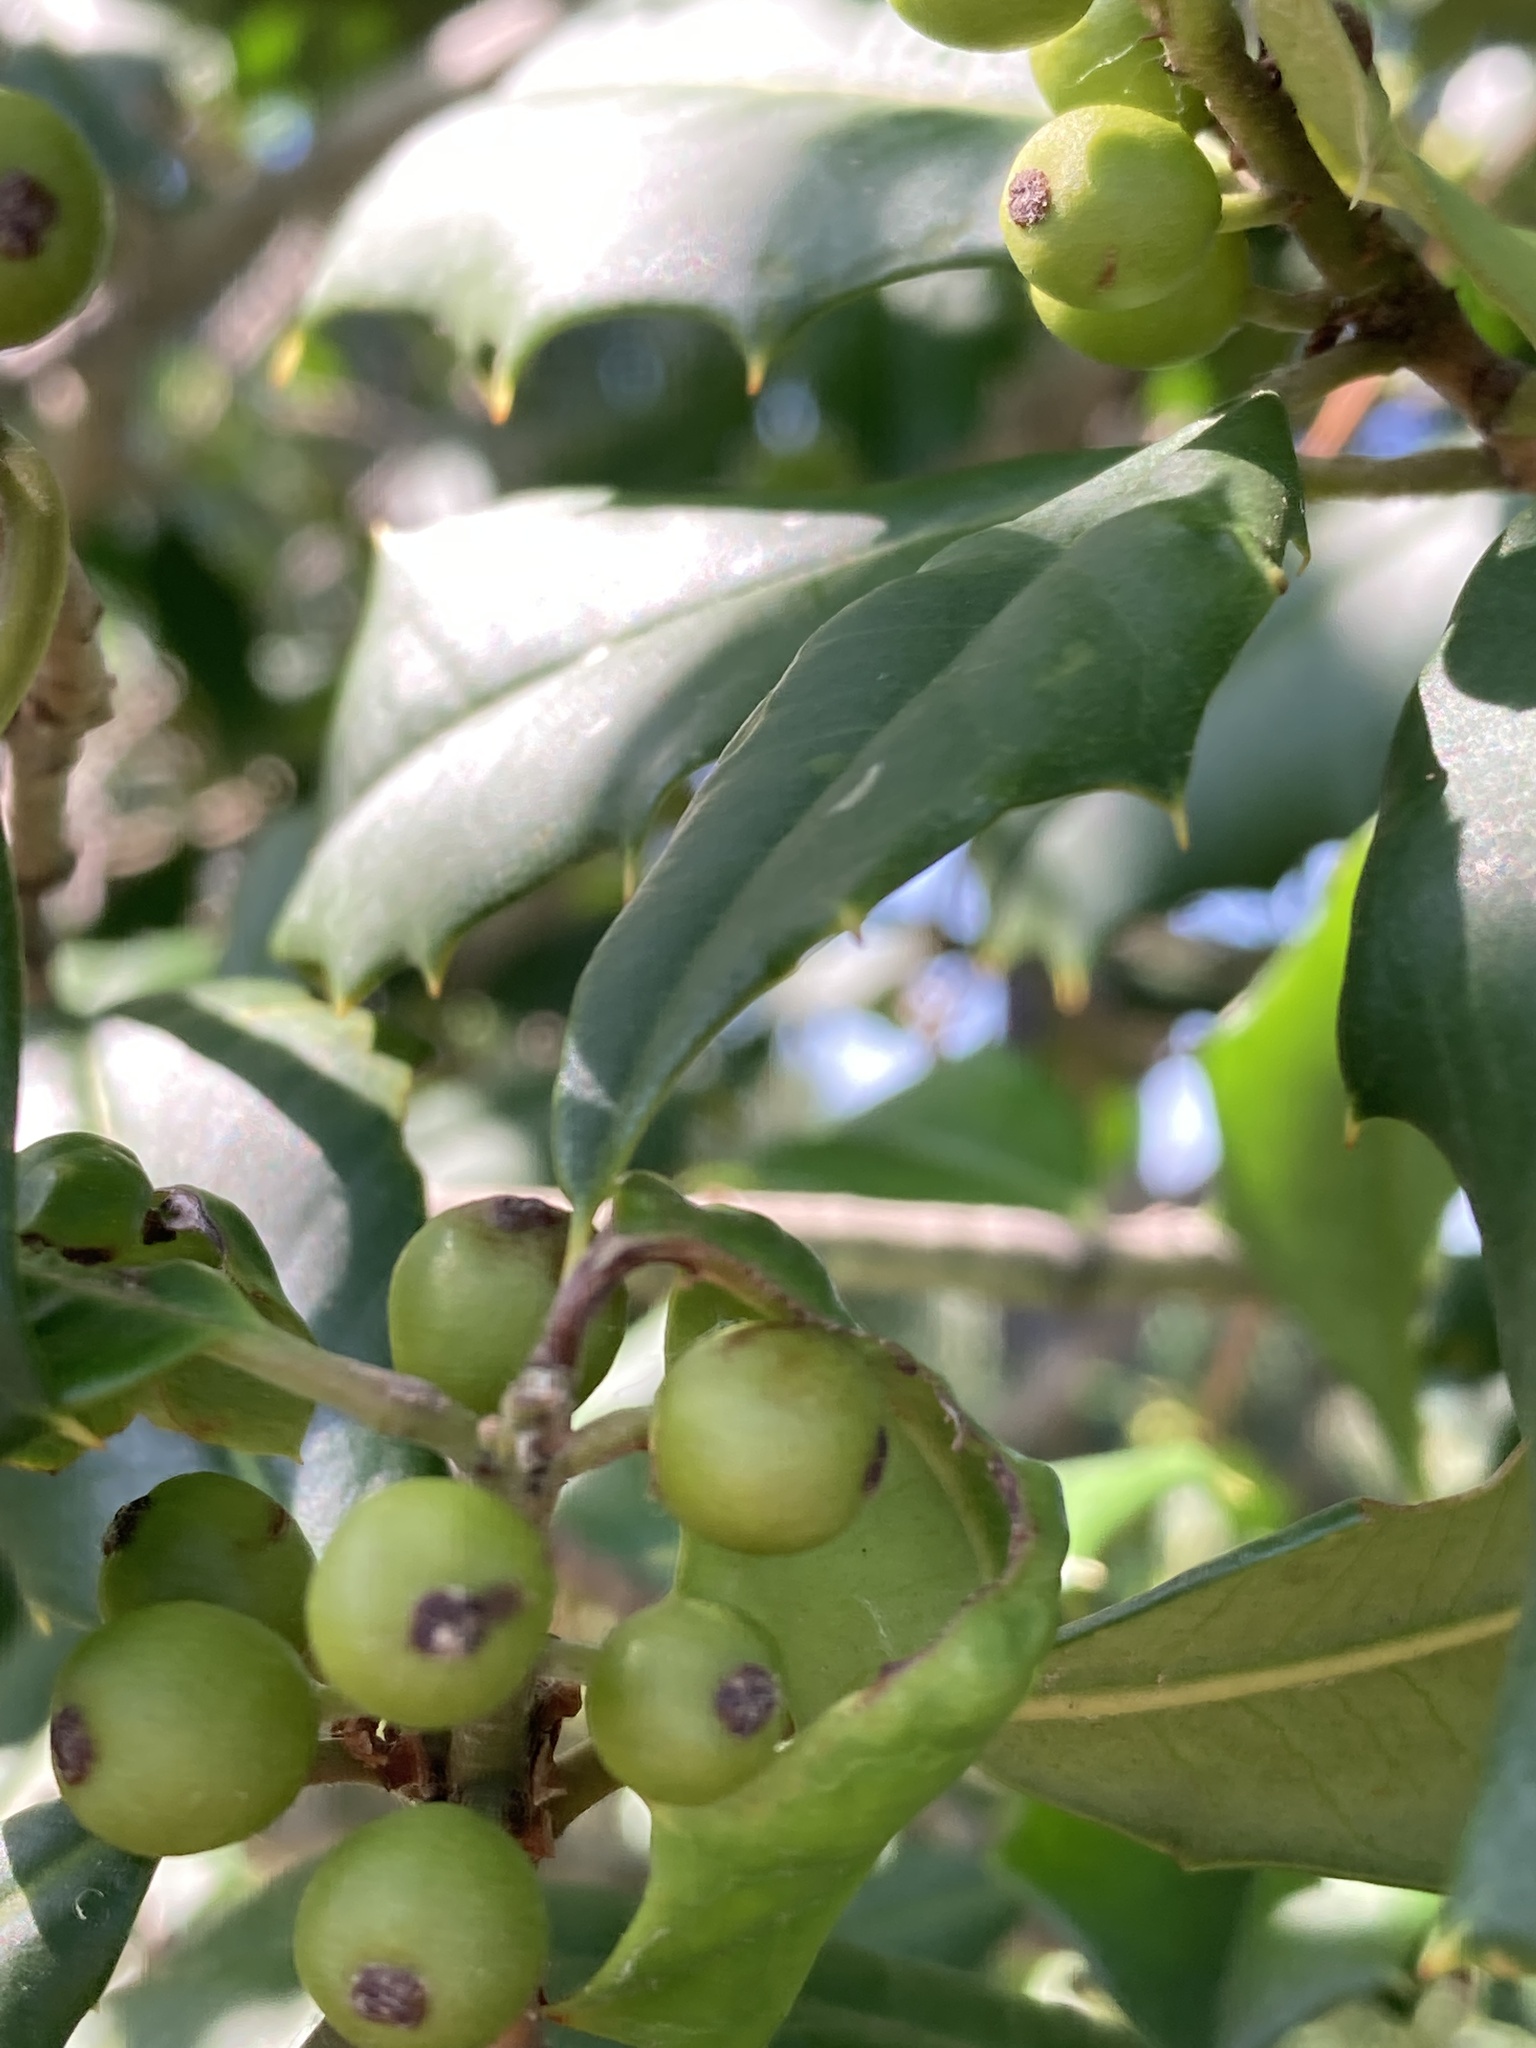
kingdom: Plantae
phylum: Tracheophyta
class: Magnoliopsida
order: Aquifoliales
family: Aquifoliaceae
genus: Ilex
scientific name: Ilex opaca
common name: American holly
